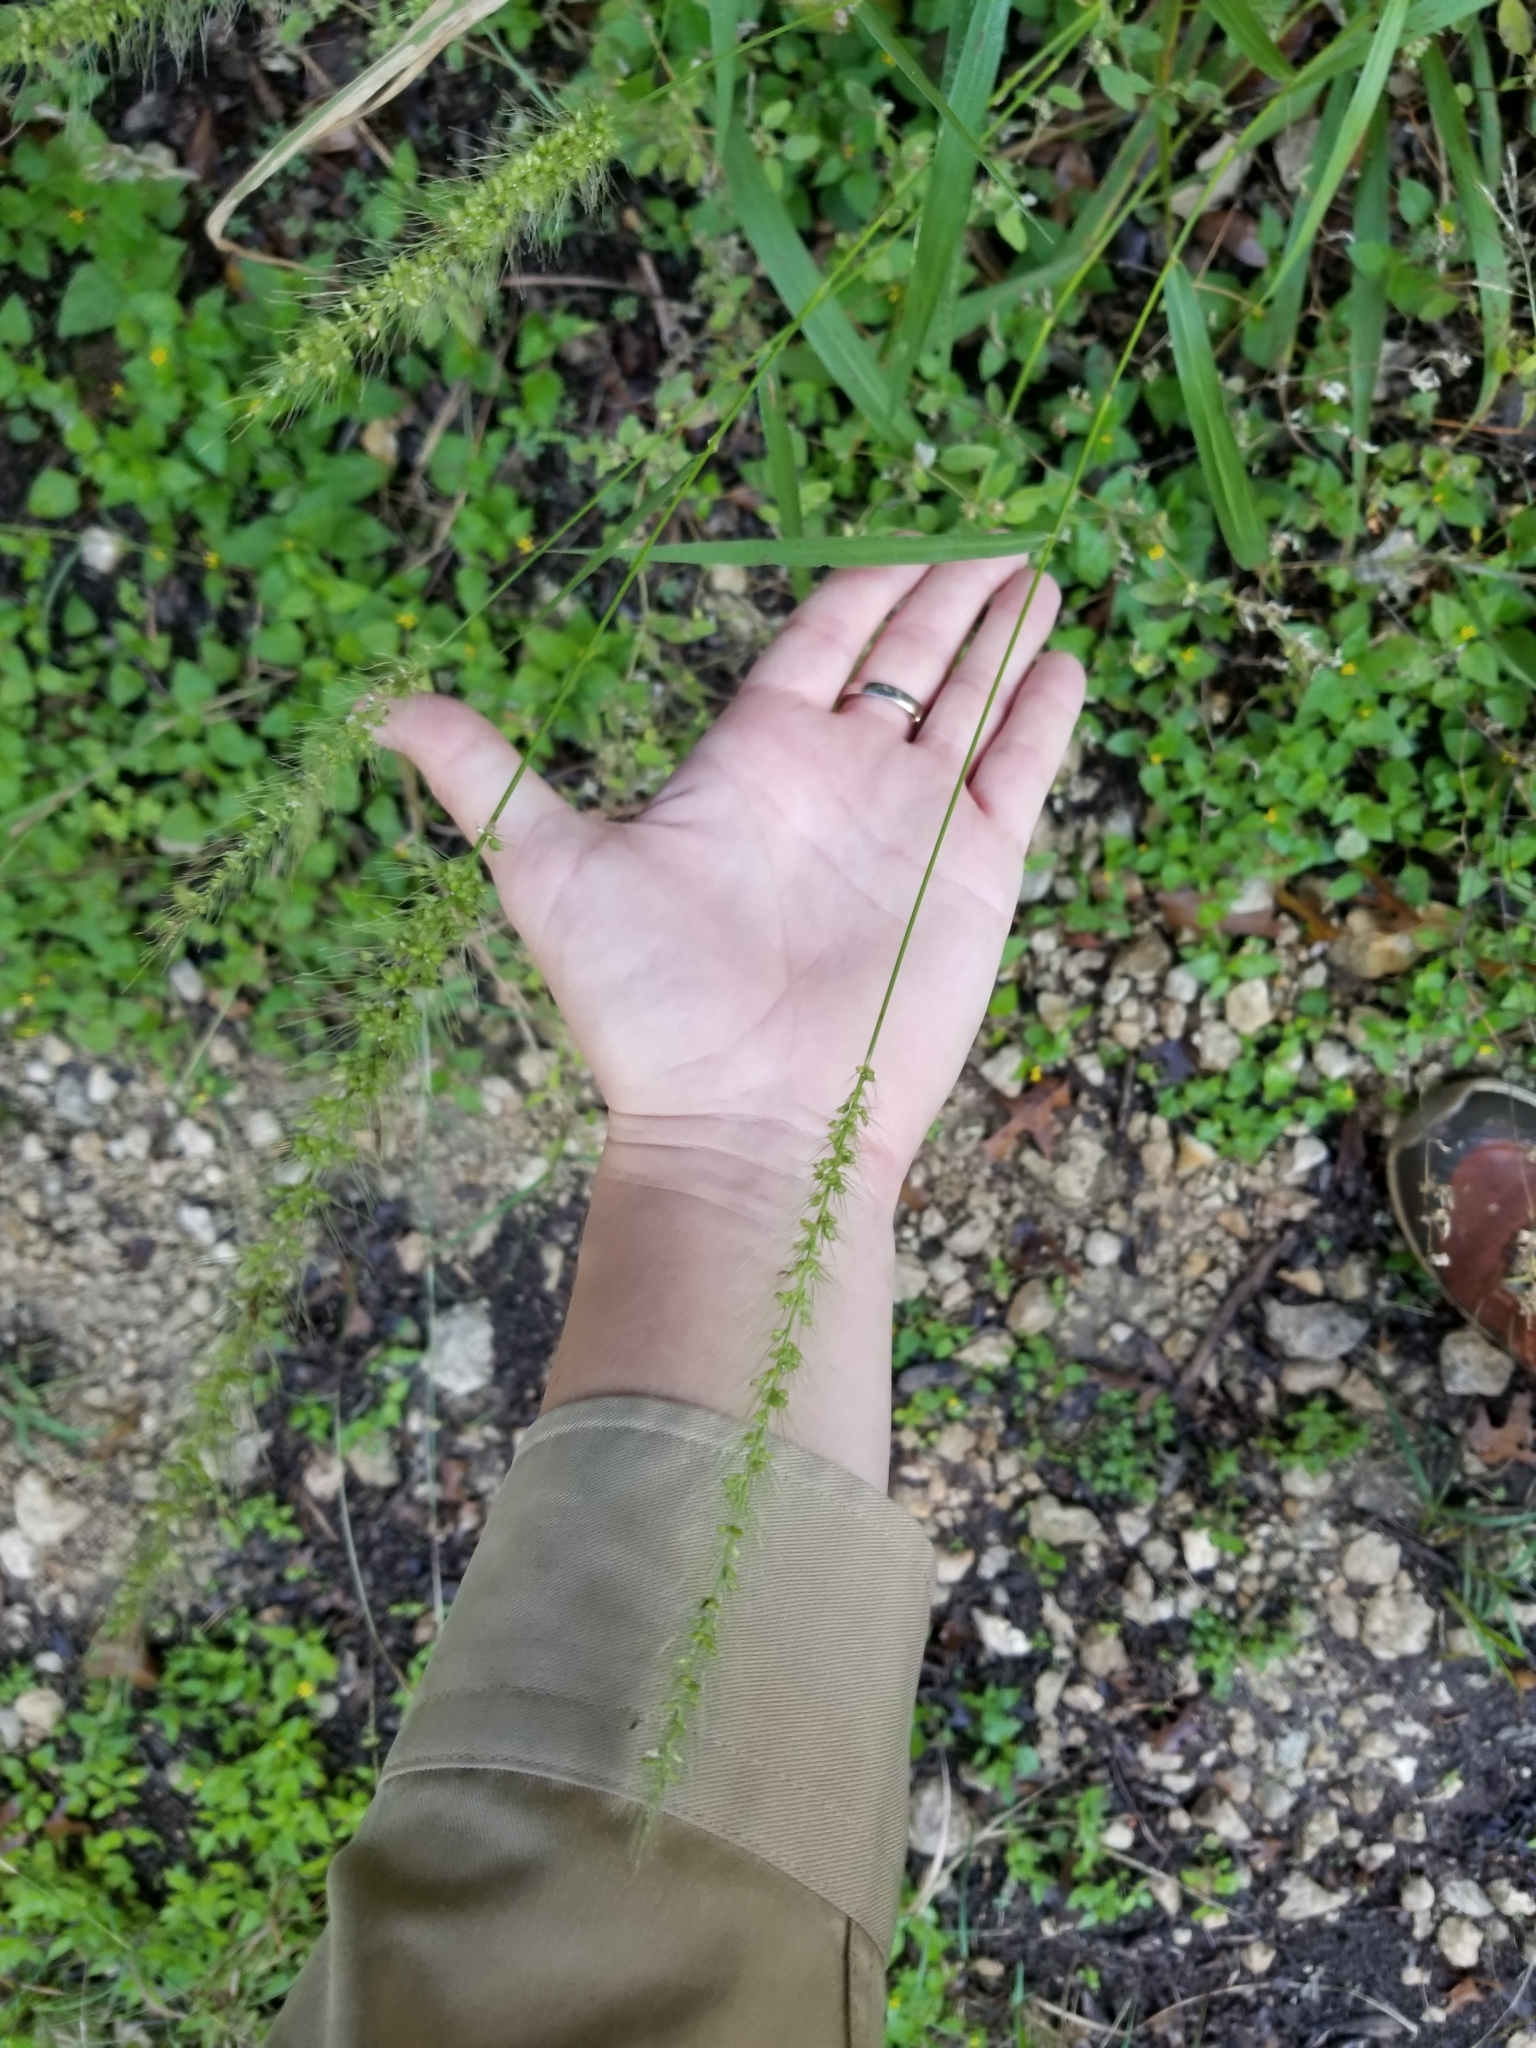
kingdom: Plantae
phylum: Tracheophyta
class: Liliopsida
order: Poales
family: Poaceae
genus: Setaria
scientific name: Setaria scheelei
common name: Southwestern bristle grass
